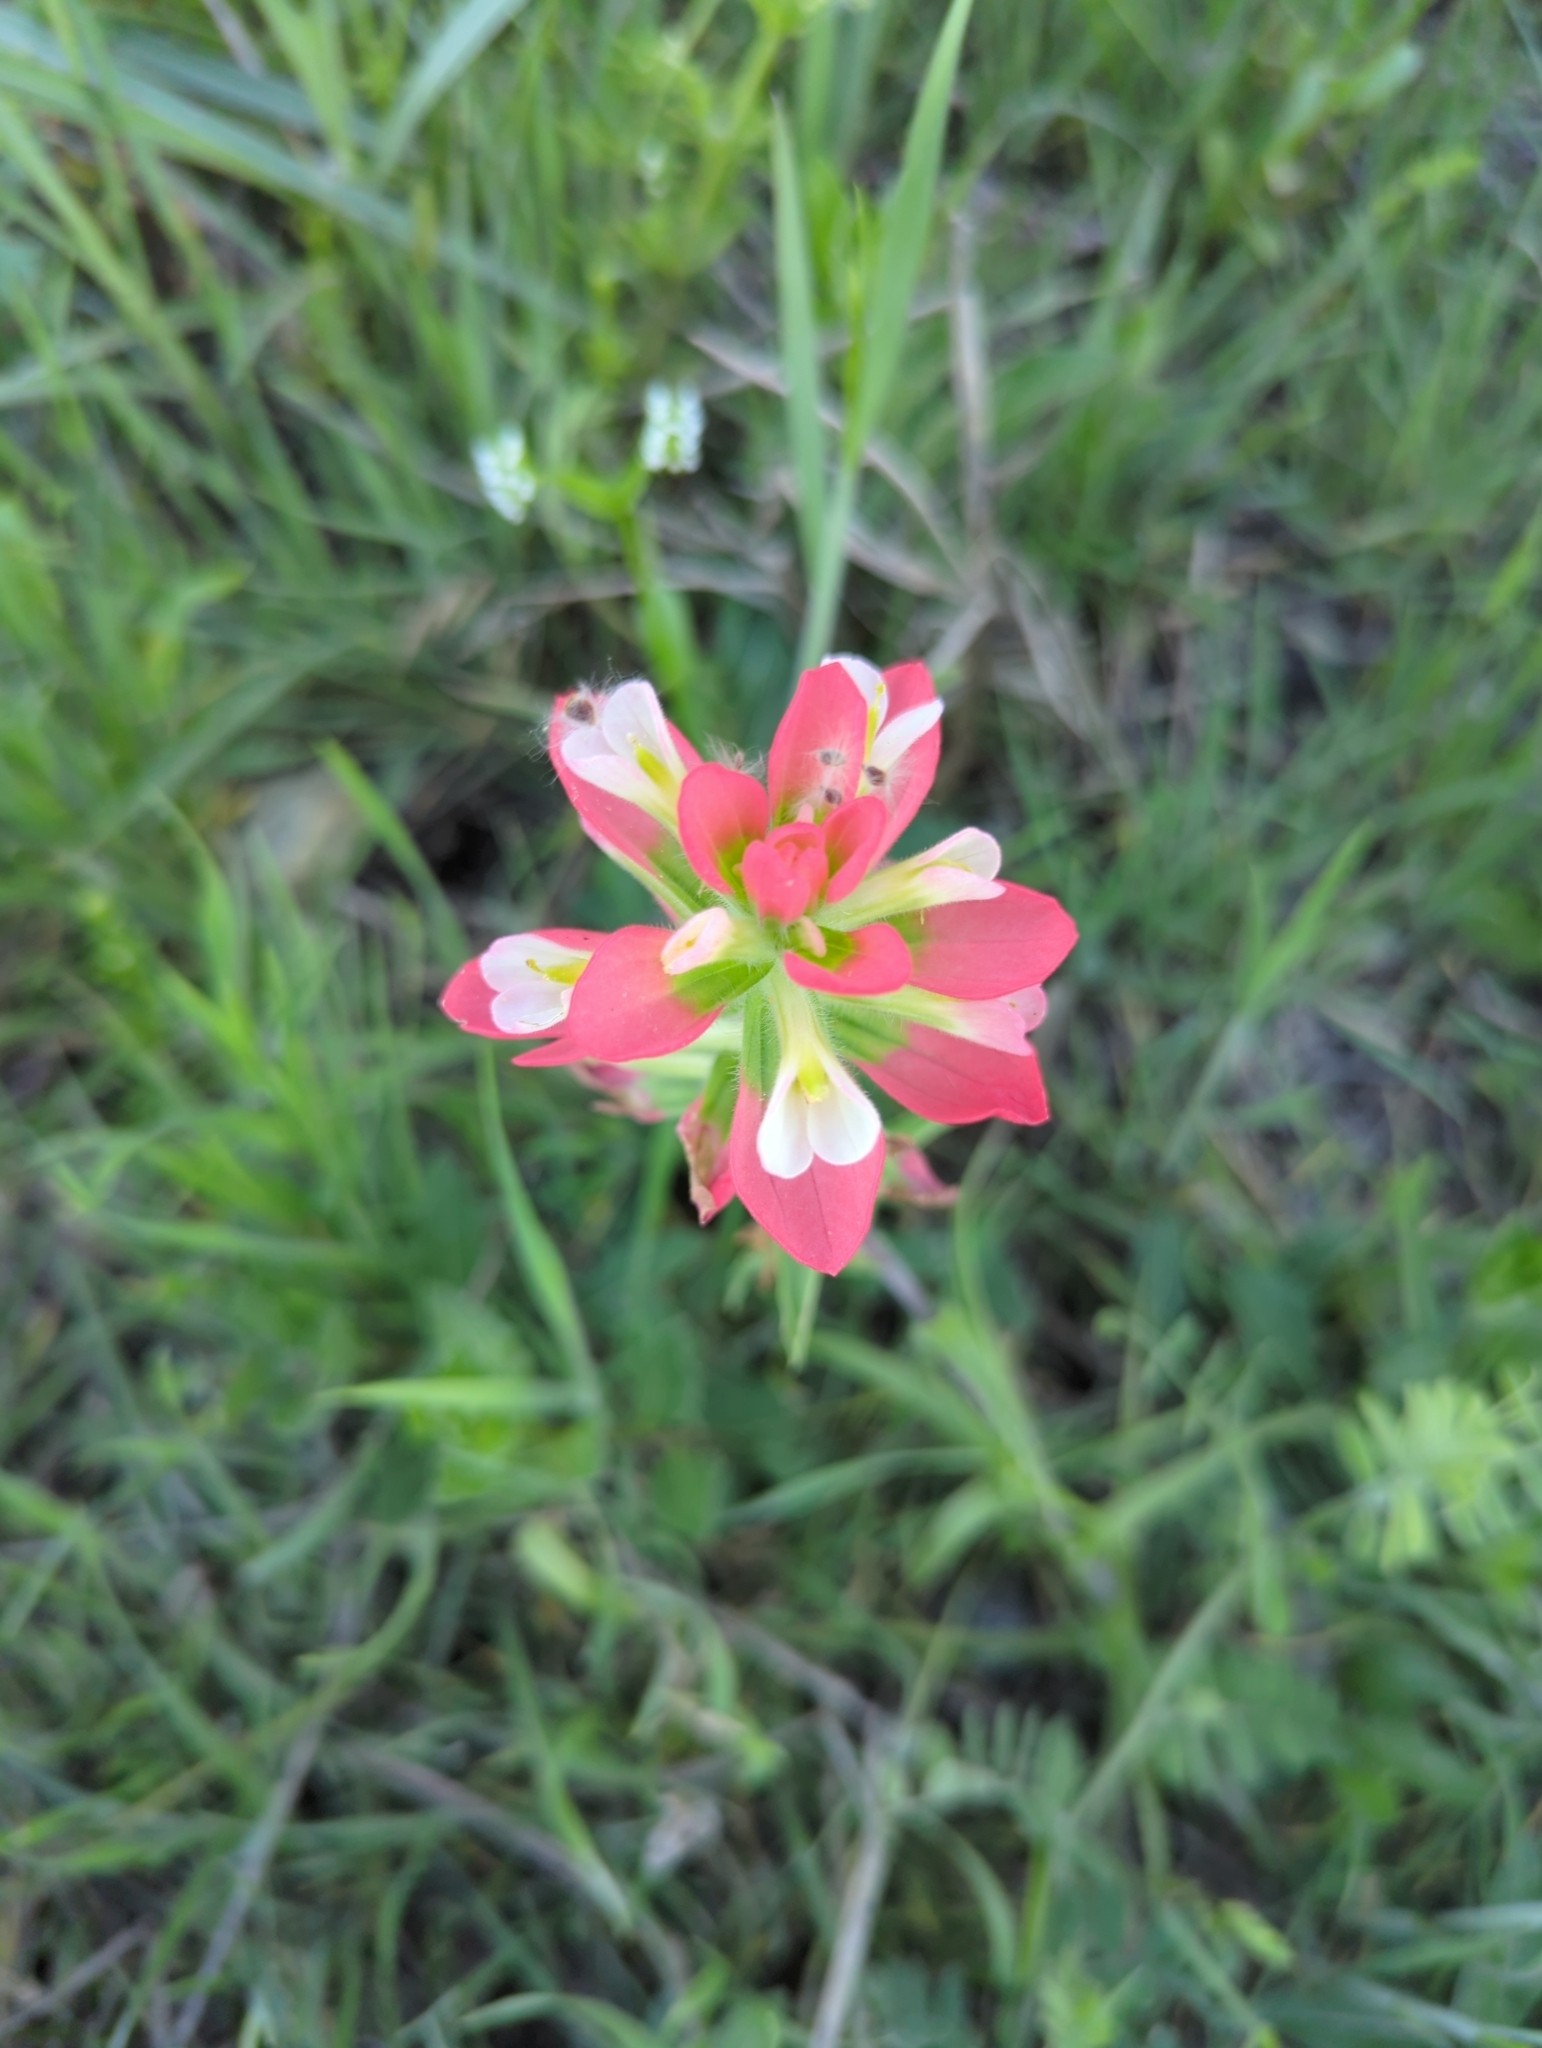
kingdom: Plantae
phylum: Tracheophyta
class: Magnoliopsida
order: Lamiales
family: Orobanchaceae
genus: Castilleja
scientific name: Castilleja indivisa
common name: Texas paintbrush
